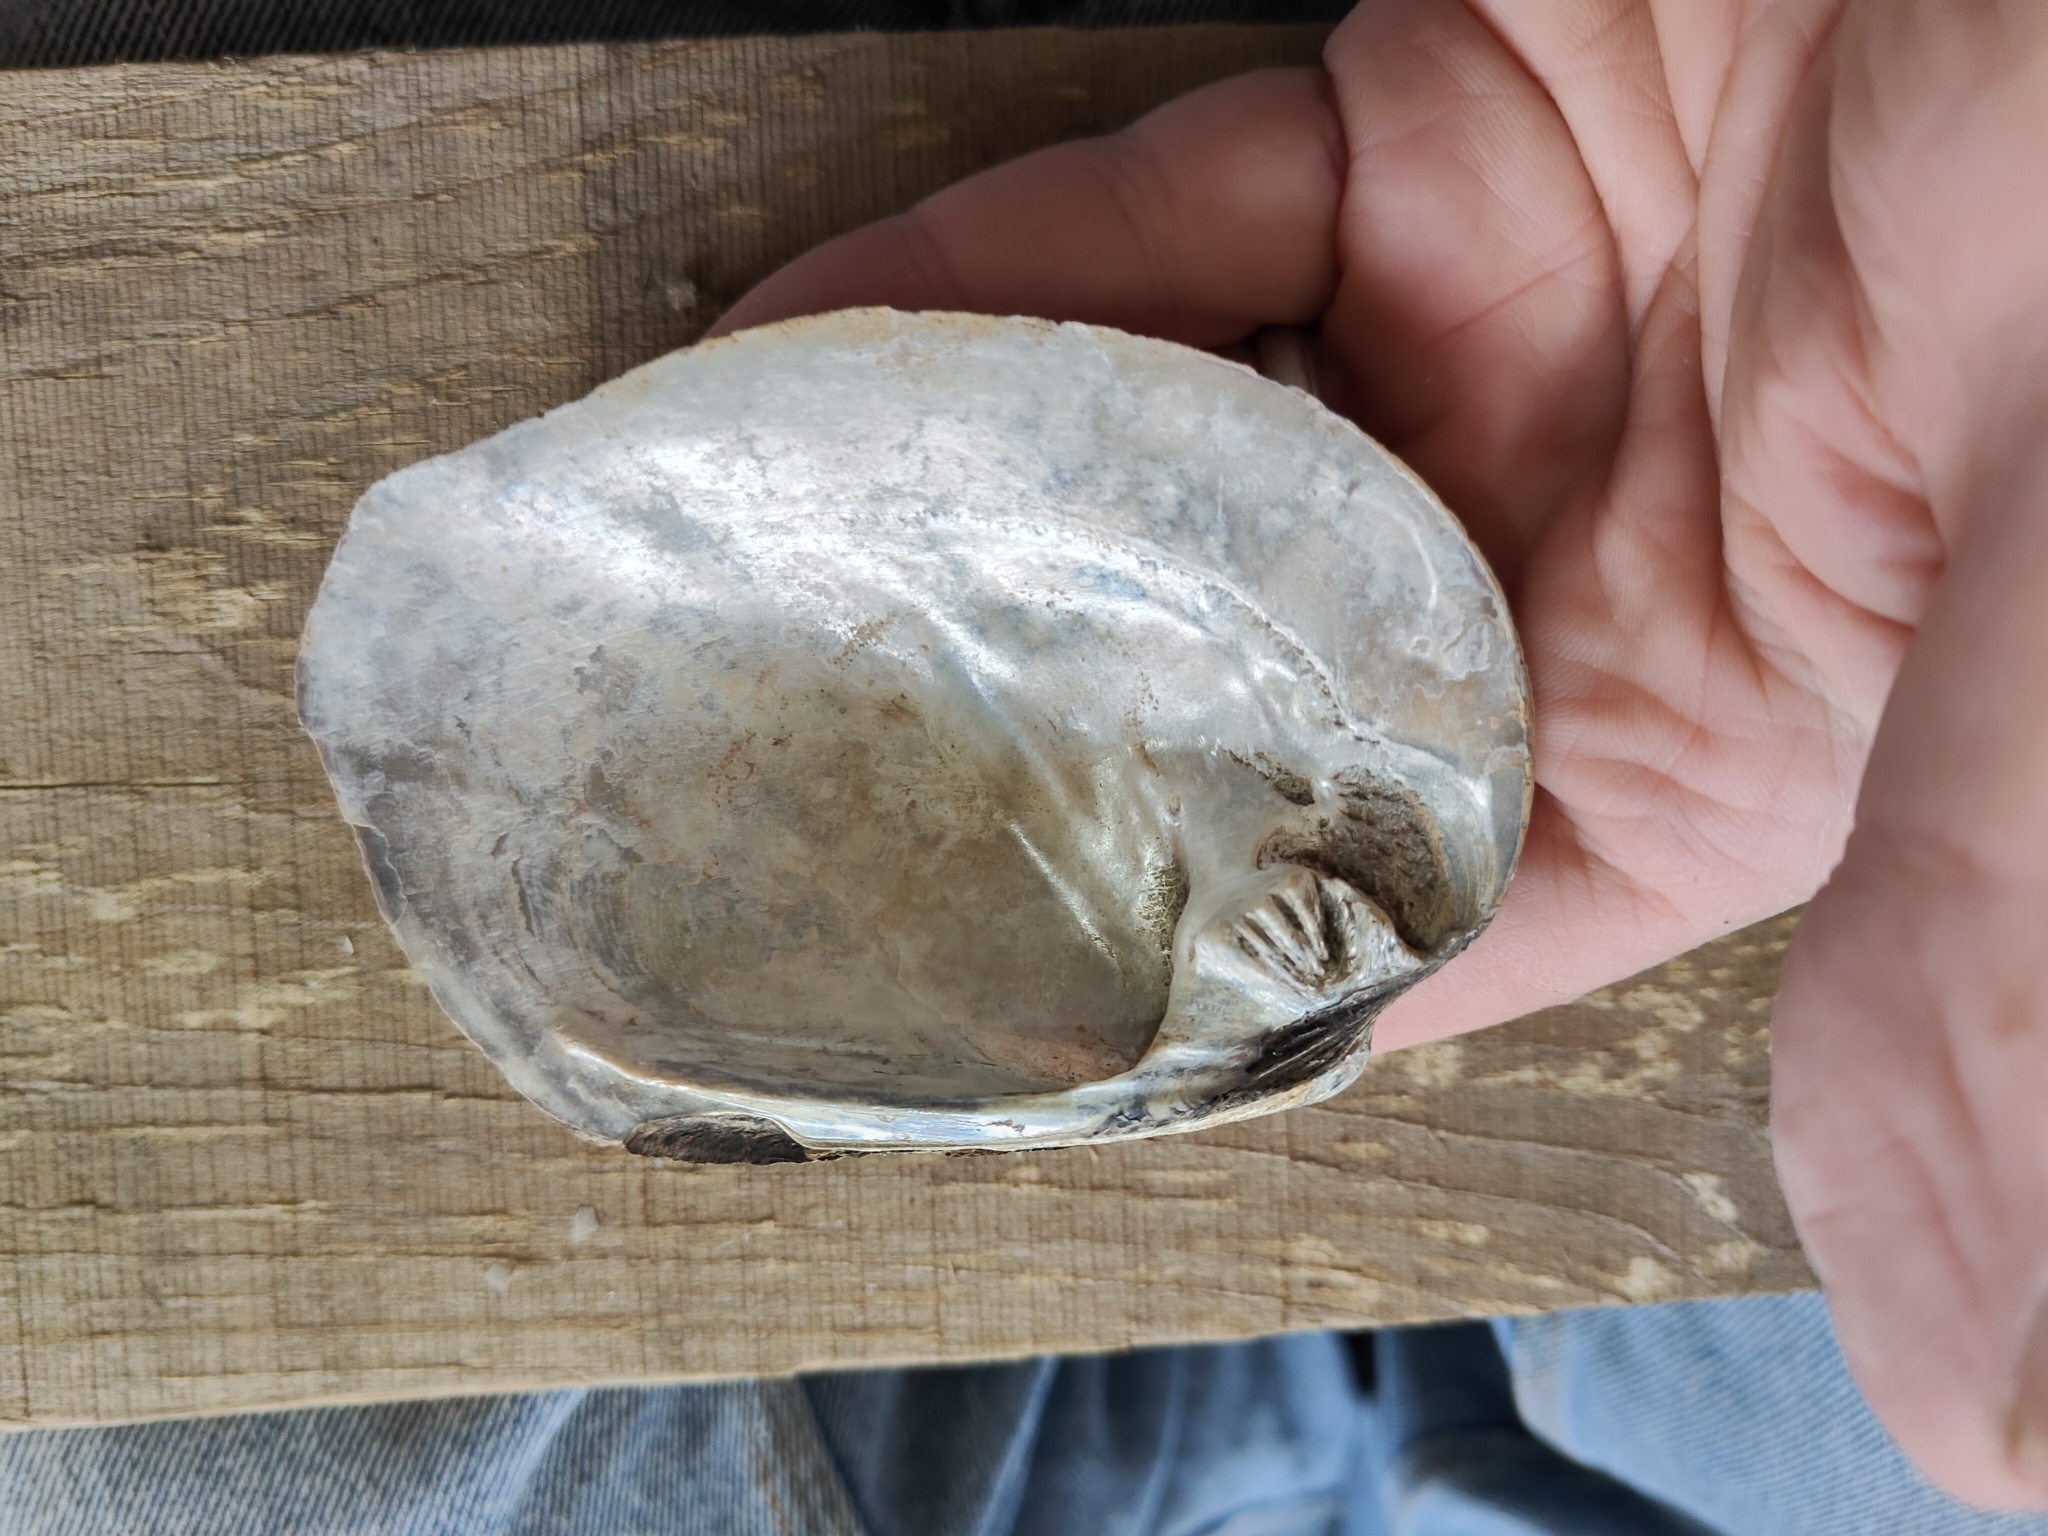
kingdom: Animalia
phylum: Mollusca
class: Bivalvia
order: Unionida
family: Unionidae
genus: Amblema
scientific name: Amblema plicata
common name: Threeridge
